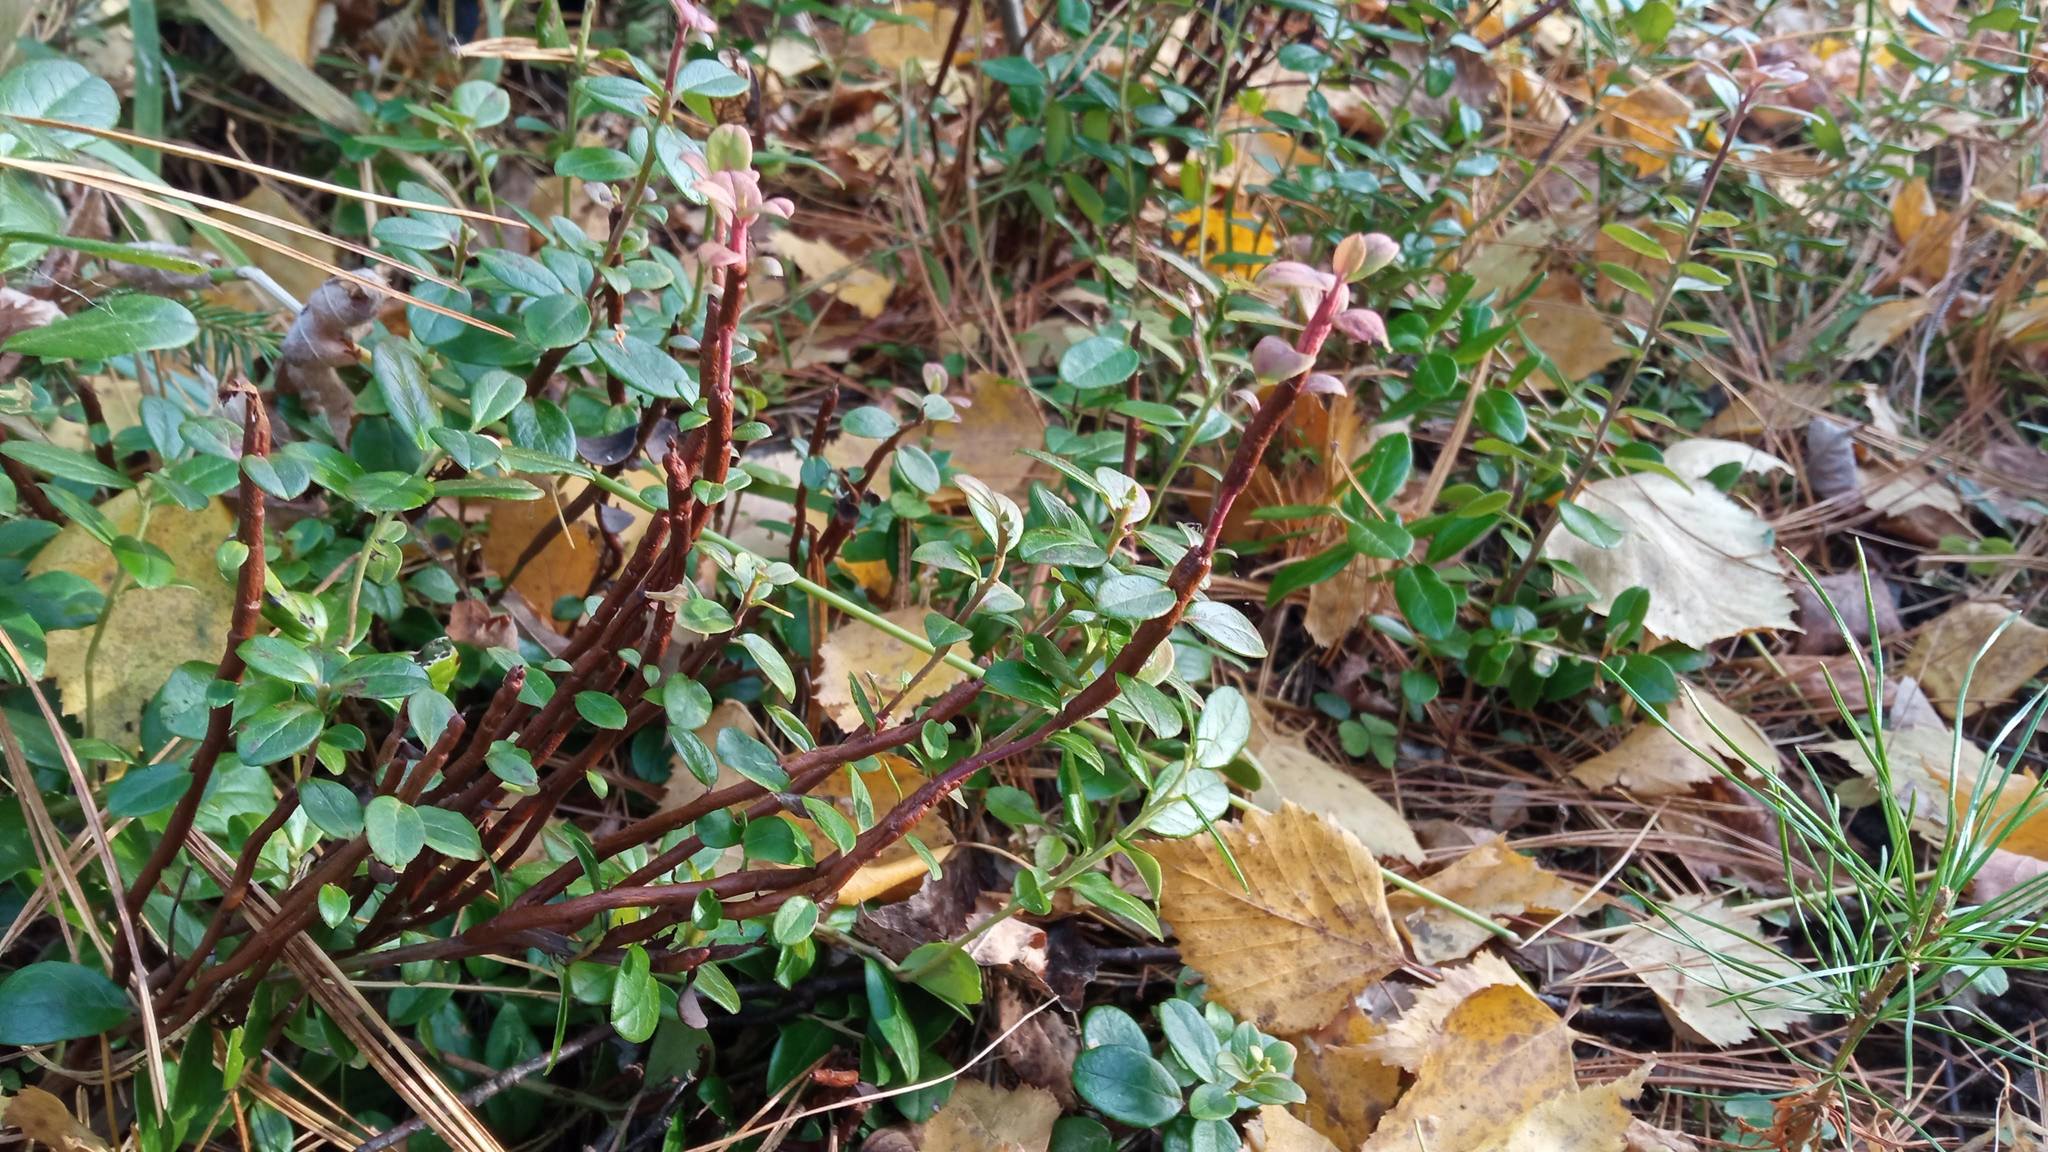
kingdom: Fungi
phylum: Basidiomycota
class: Pucciniomycetes
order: Pucciniales
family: Pucciniastraceae
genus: Calyptospora
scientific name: Calyptospora columnaris
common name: Huckleberry broom rust fungus
